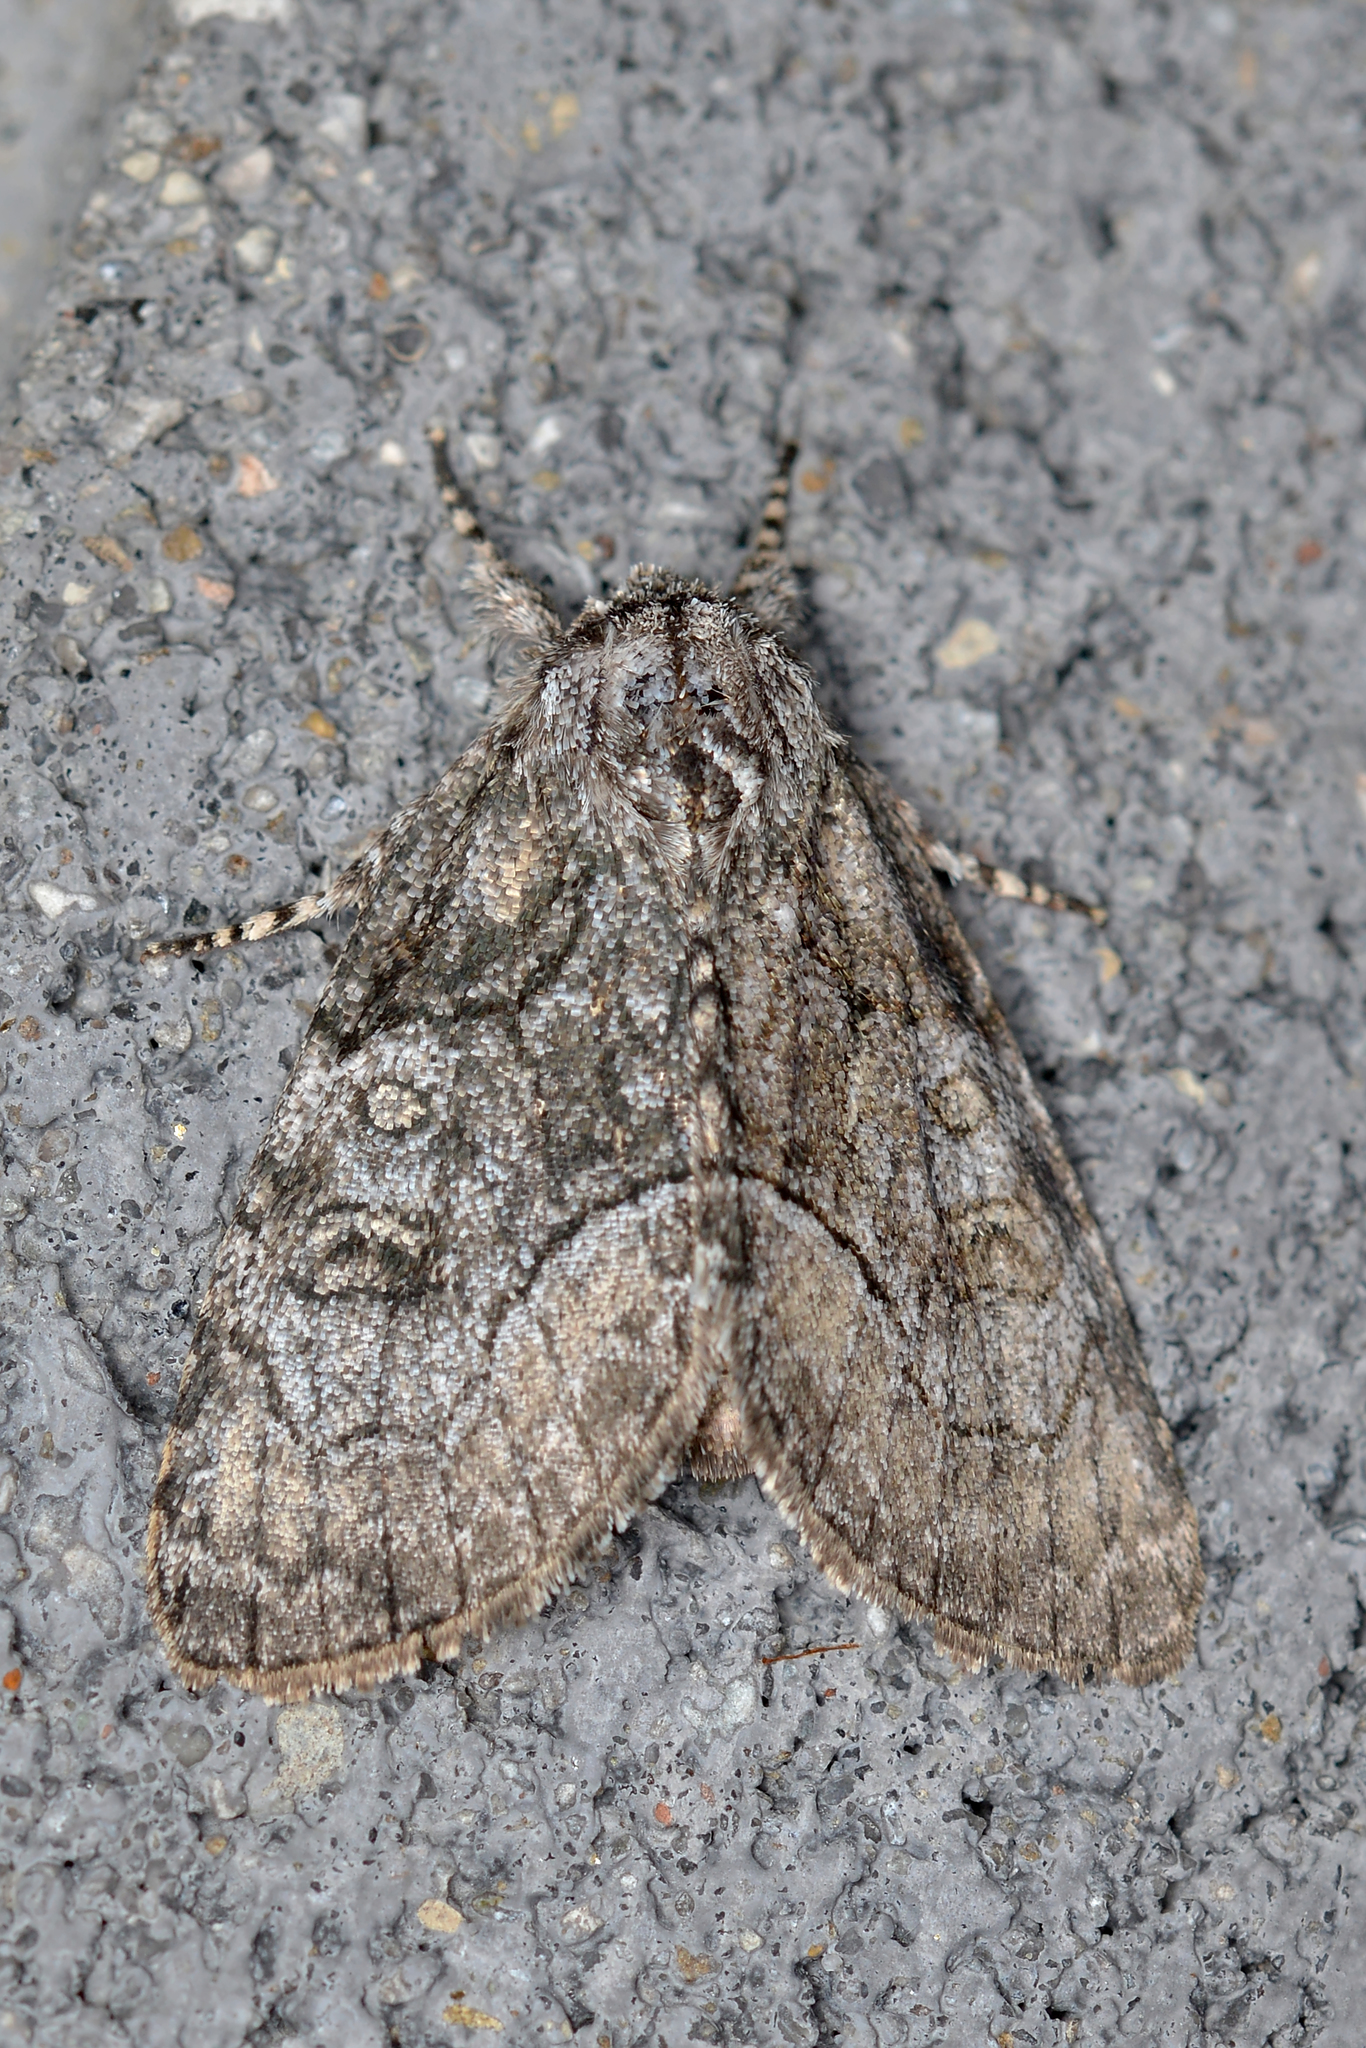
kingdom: Animalia
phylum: Arthropoda
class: Insecta
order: Lepidoptera
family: Noctuidae
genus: Raphia
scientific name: Raphia frater
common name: Brother
